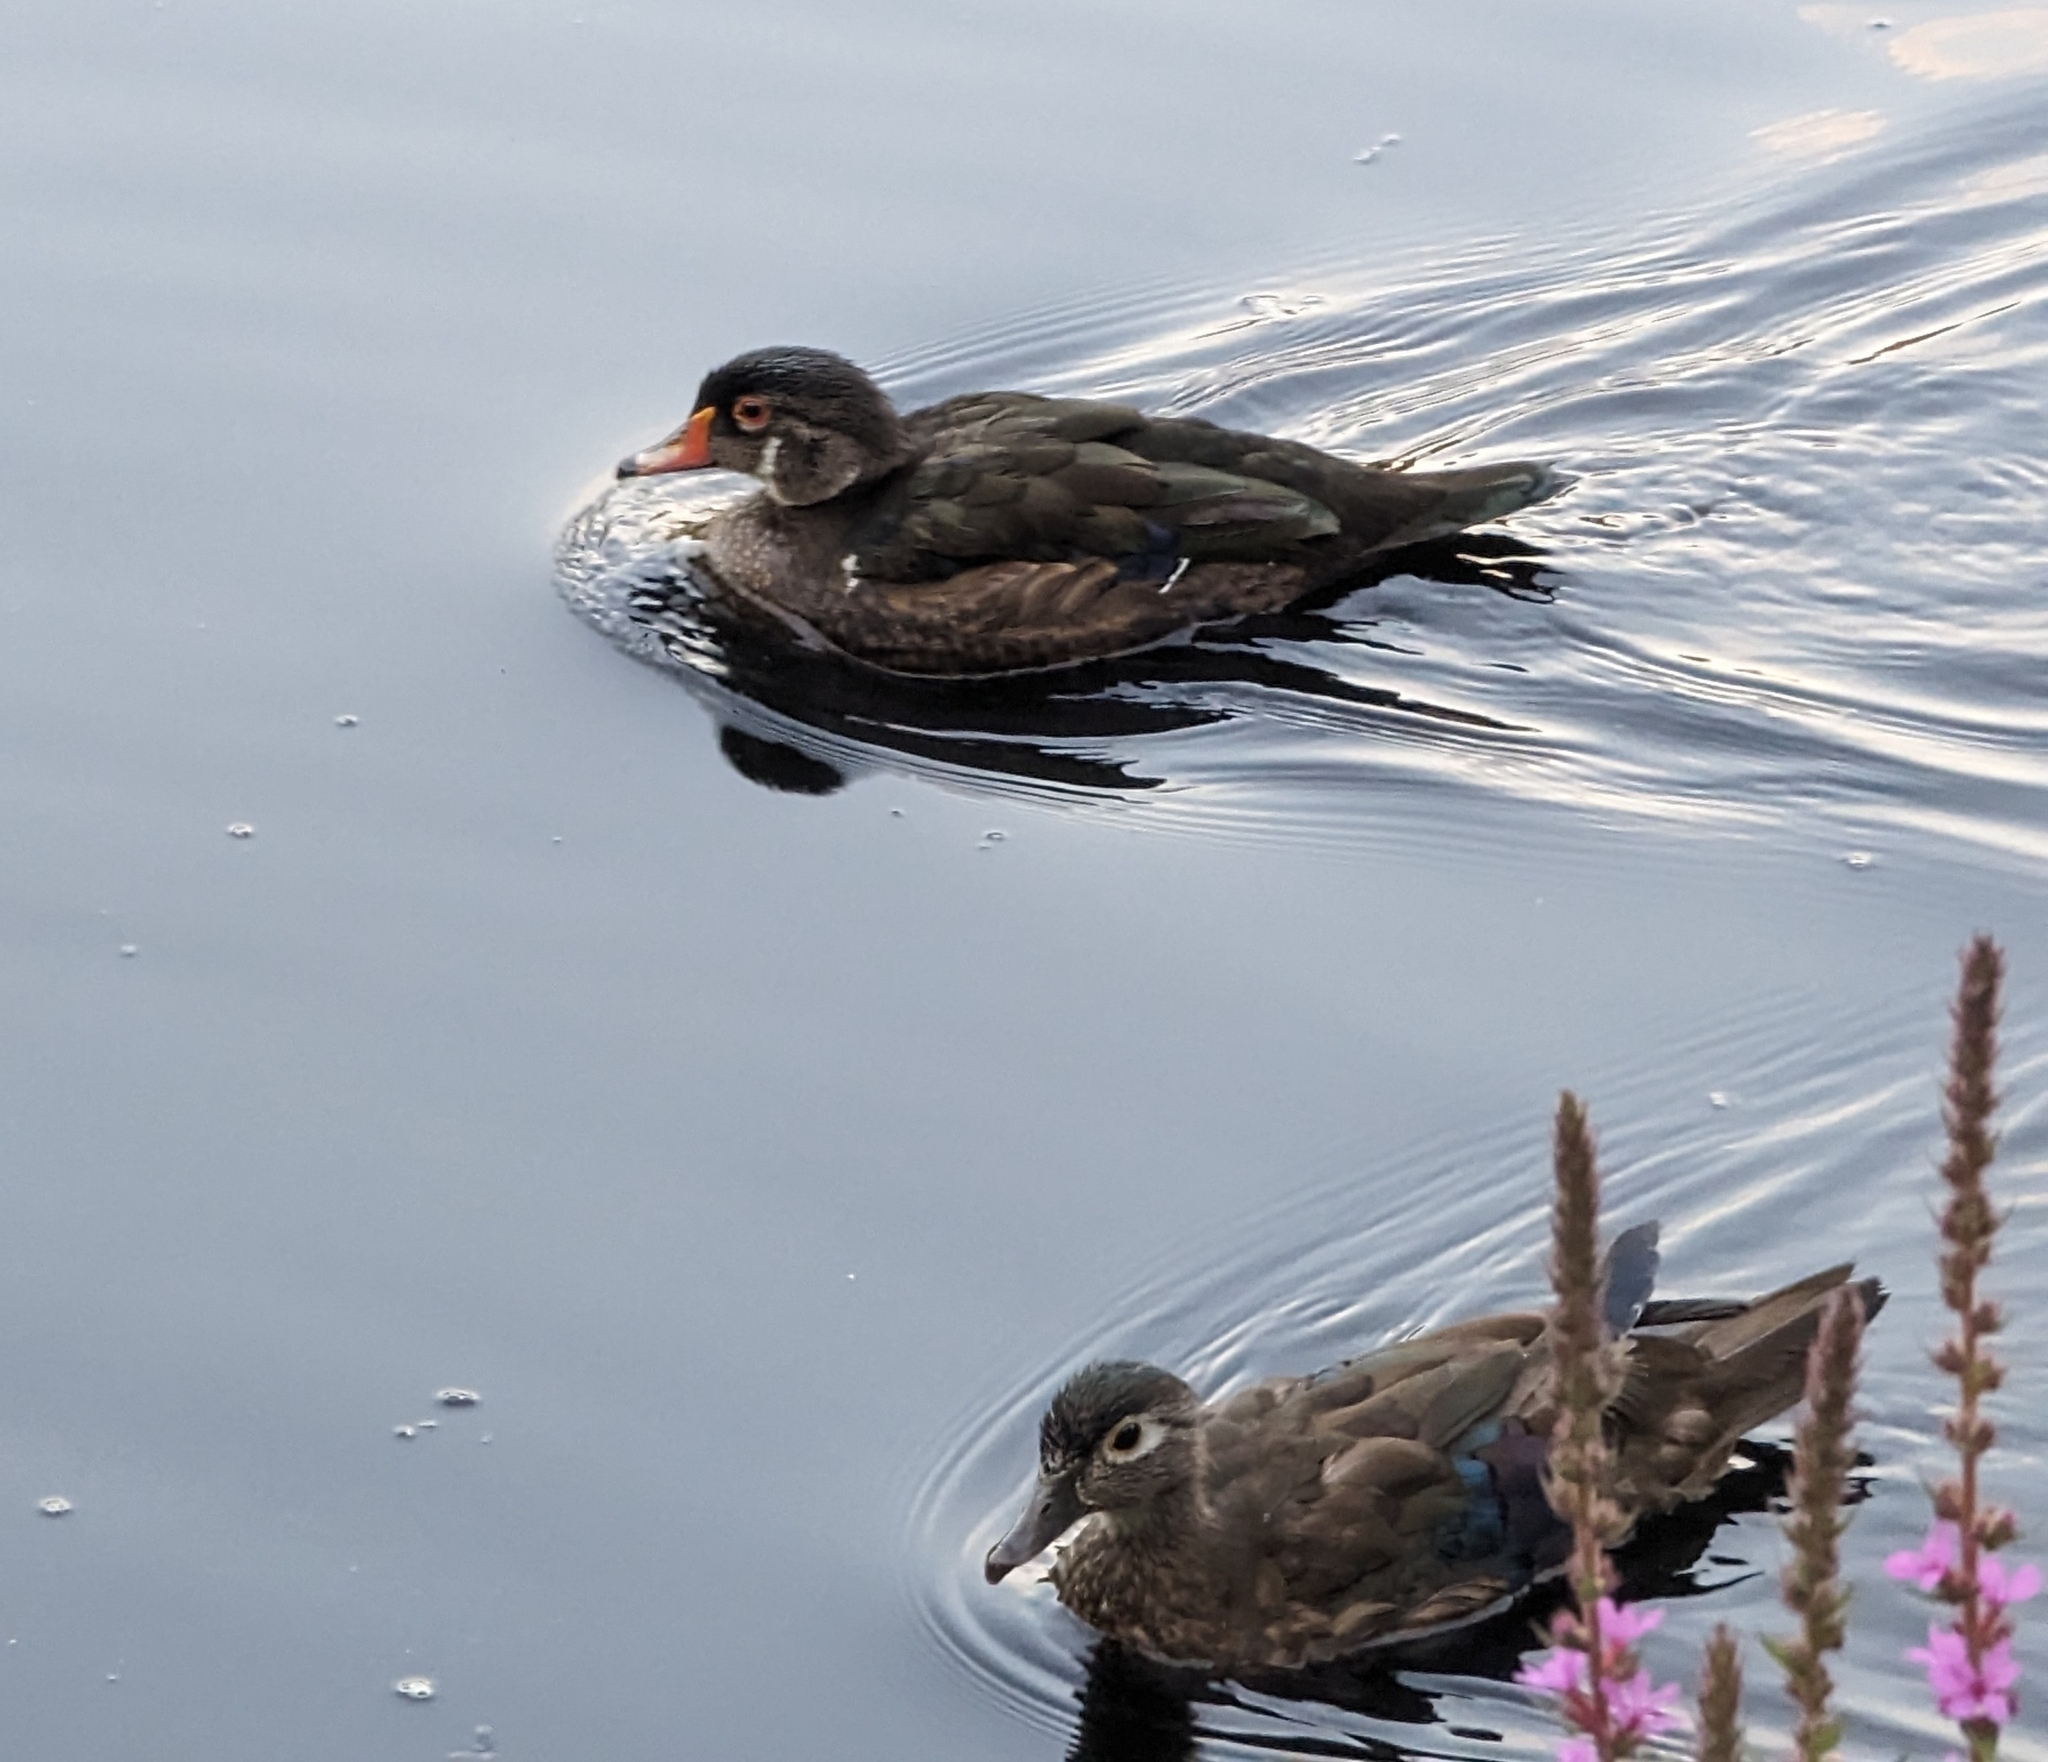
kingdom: Animalia
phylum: Chordata
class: Aves
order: Anseriformes
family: Anatidae
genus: Aix
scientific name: Aix sponsa
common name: Wood duck
